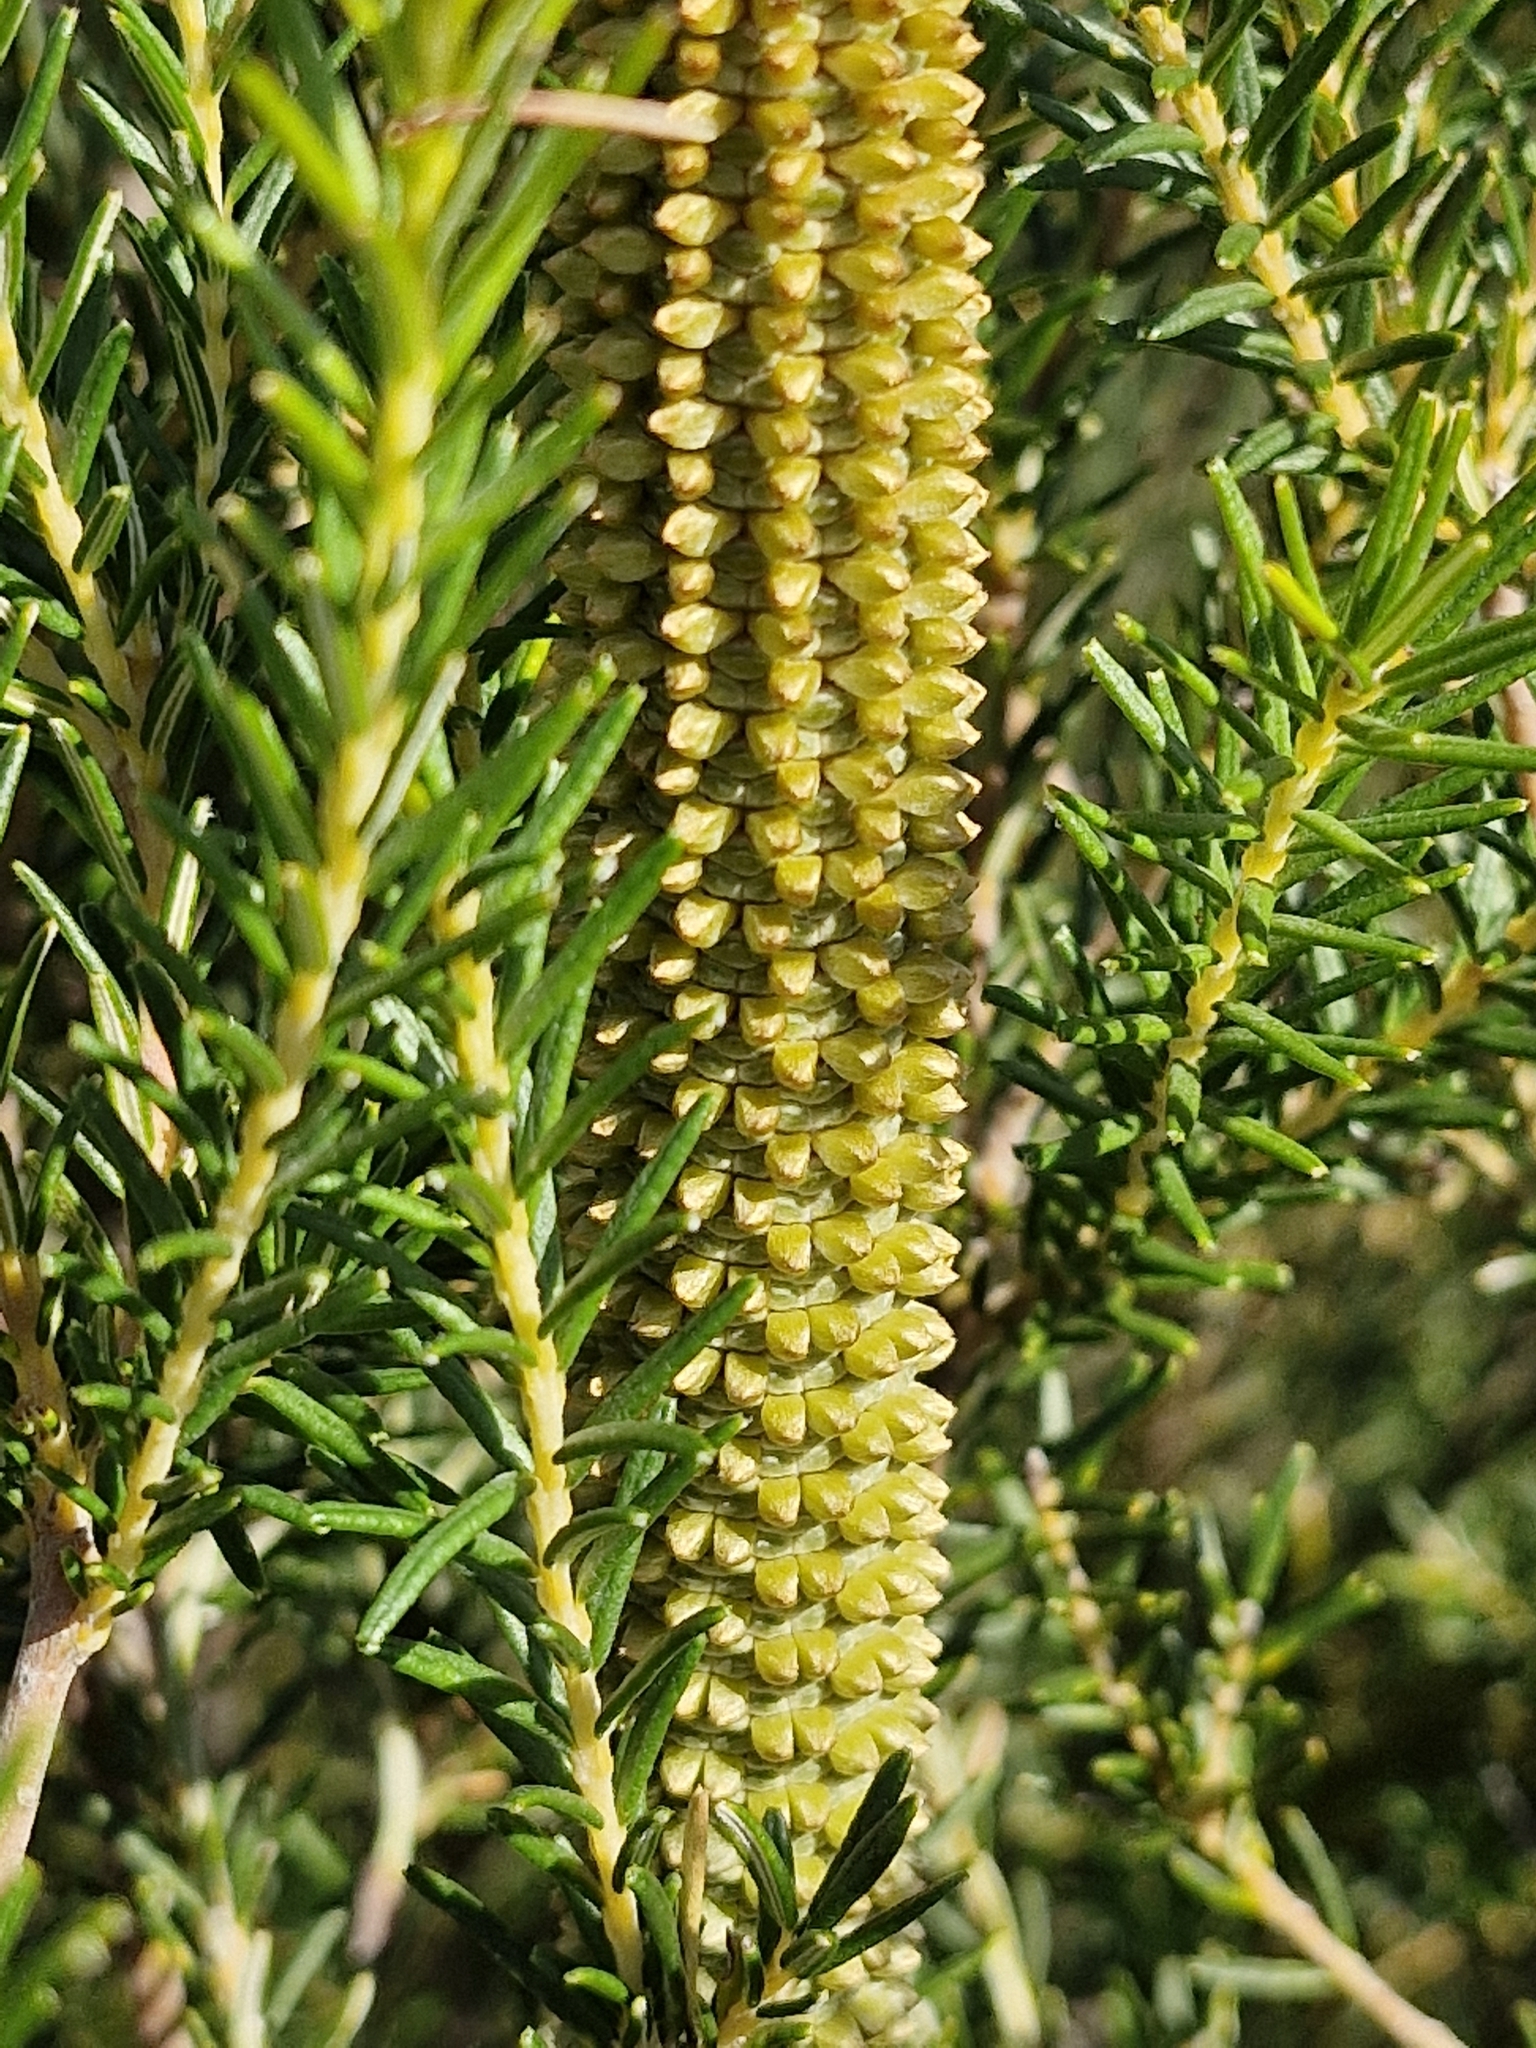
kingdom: Plantae
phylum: Tracheophyta
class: Magnoliopsida
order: Proteales
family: Proteaceae
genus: Banksia
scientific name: Banksia ericifolia
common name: Heath-leaf banksia
